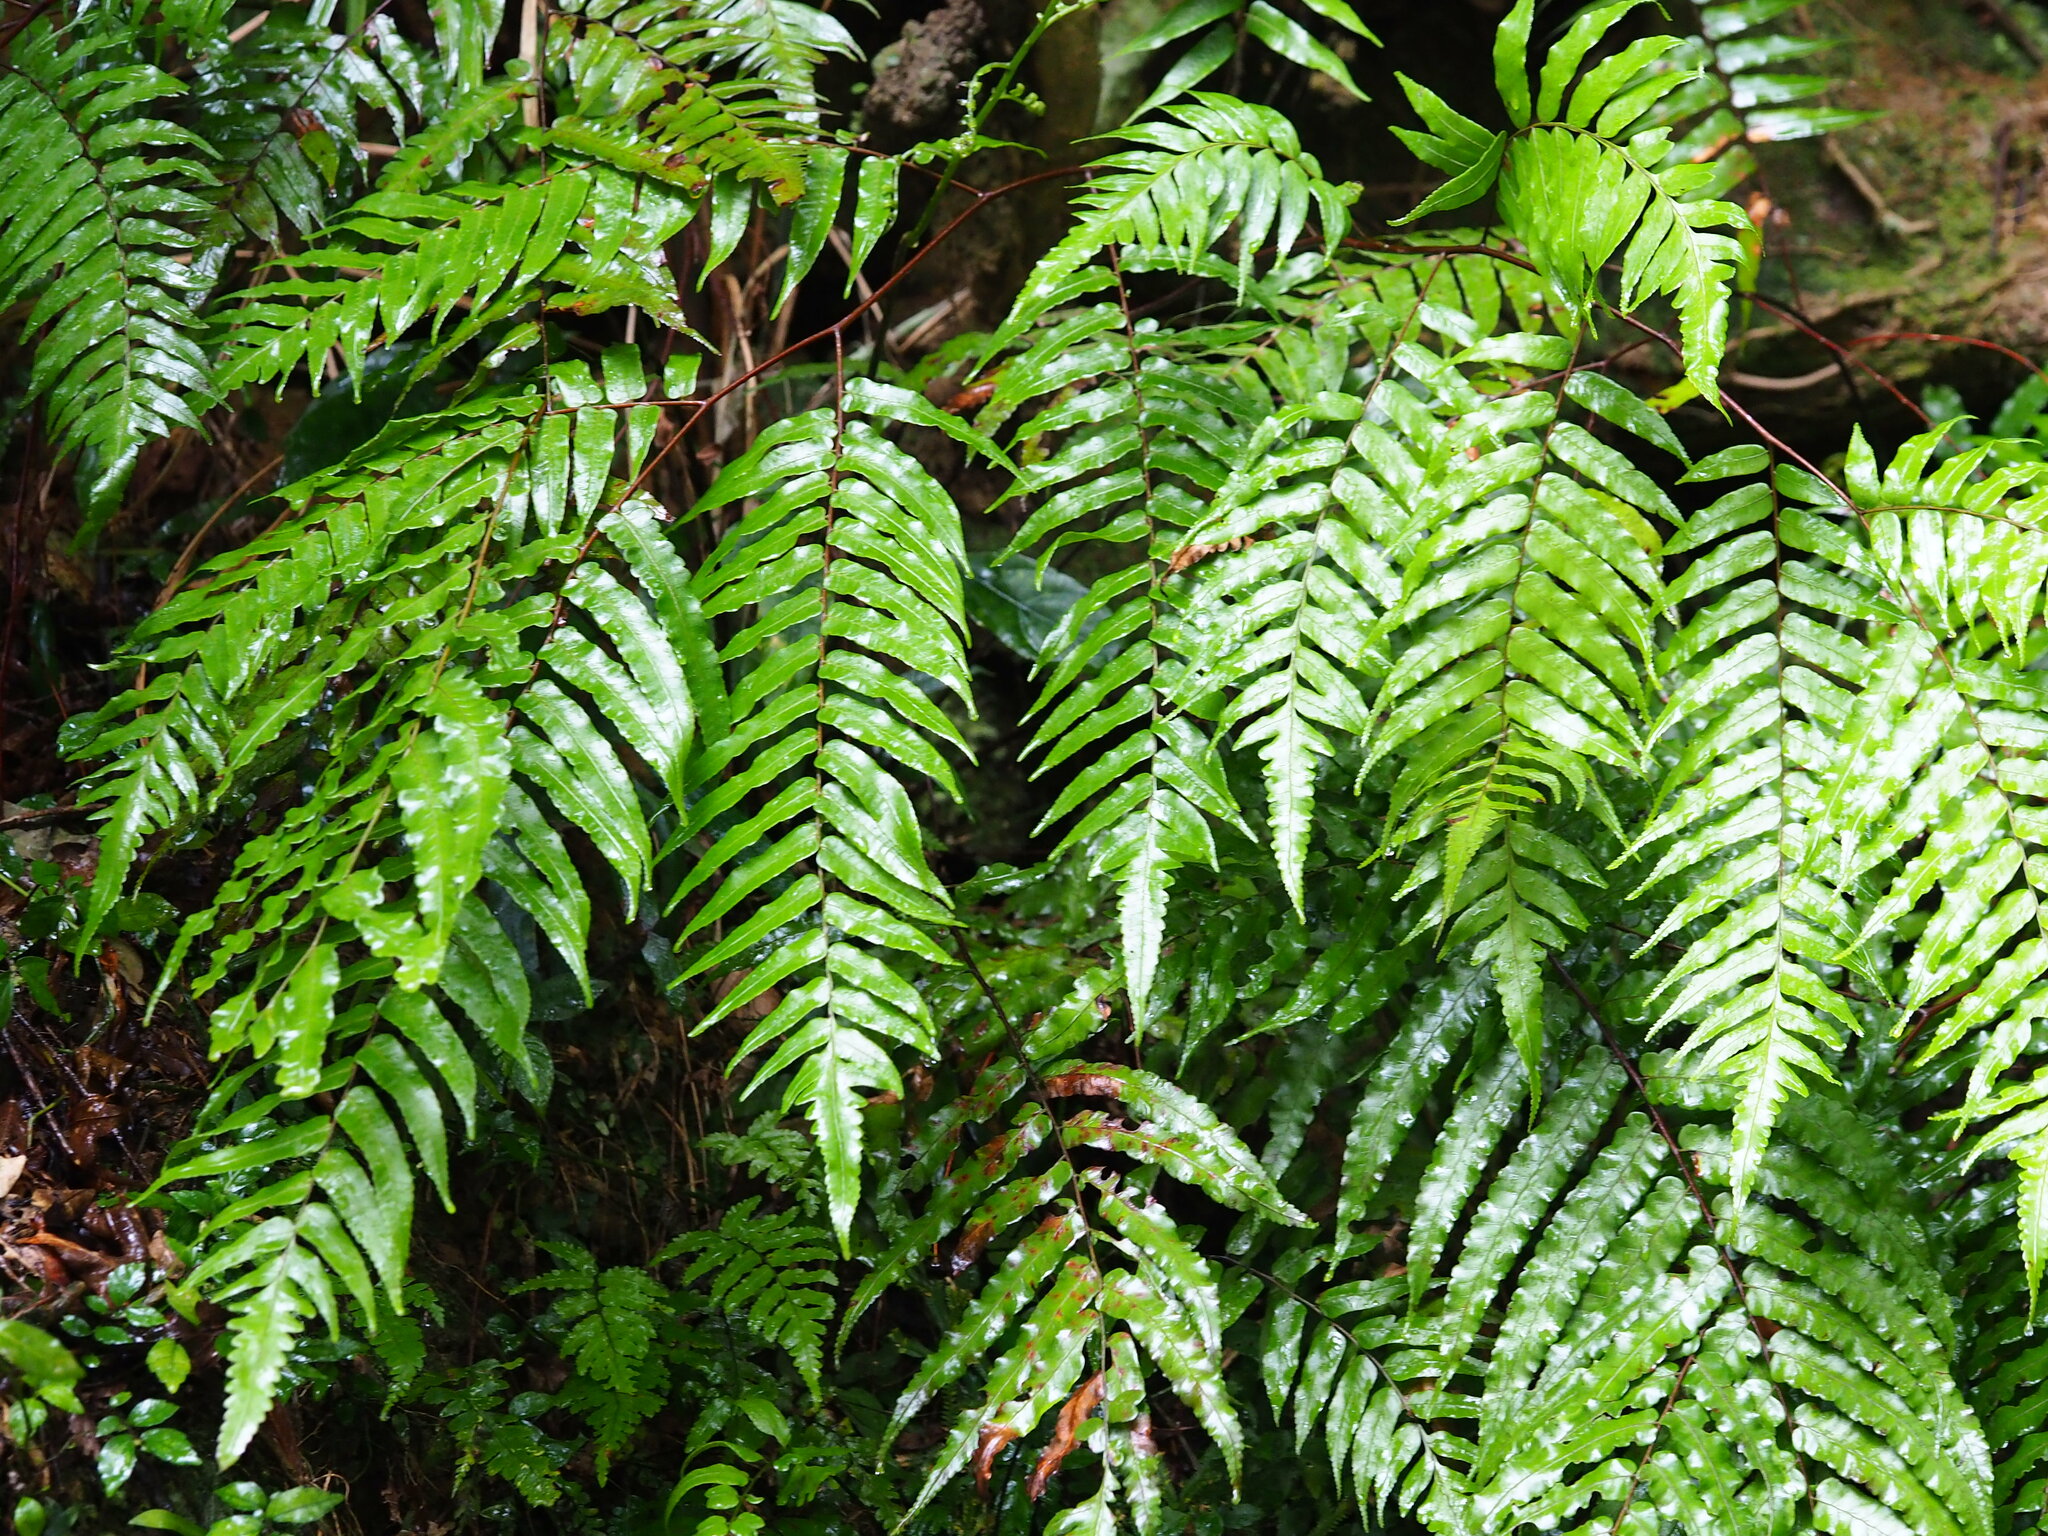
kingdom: Plantae
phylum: Tracheophyta
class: Polypodiopsida
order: Cyatheales
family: Cyatheaceae
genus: Gymnosphaera
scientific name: Gymnosphaera podophylla
